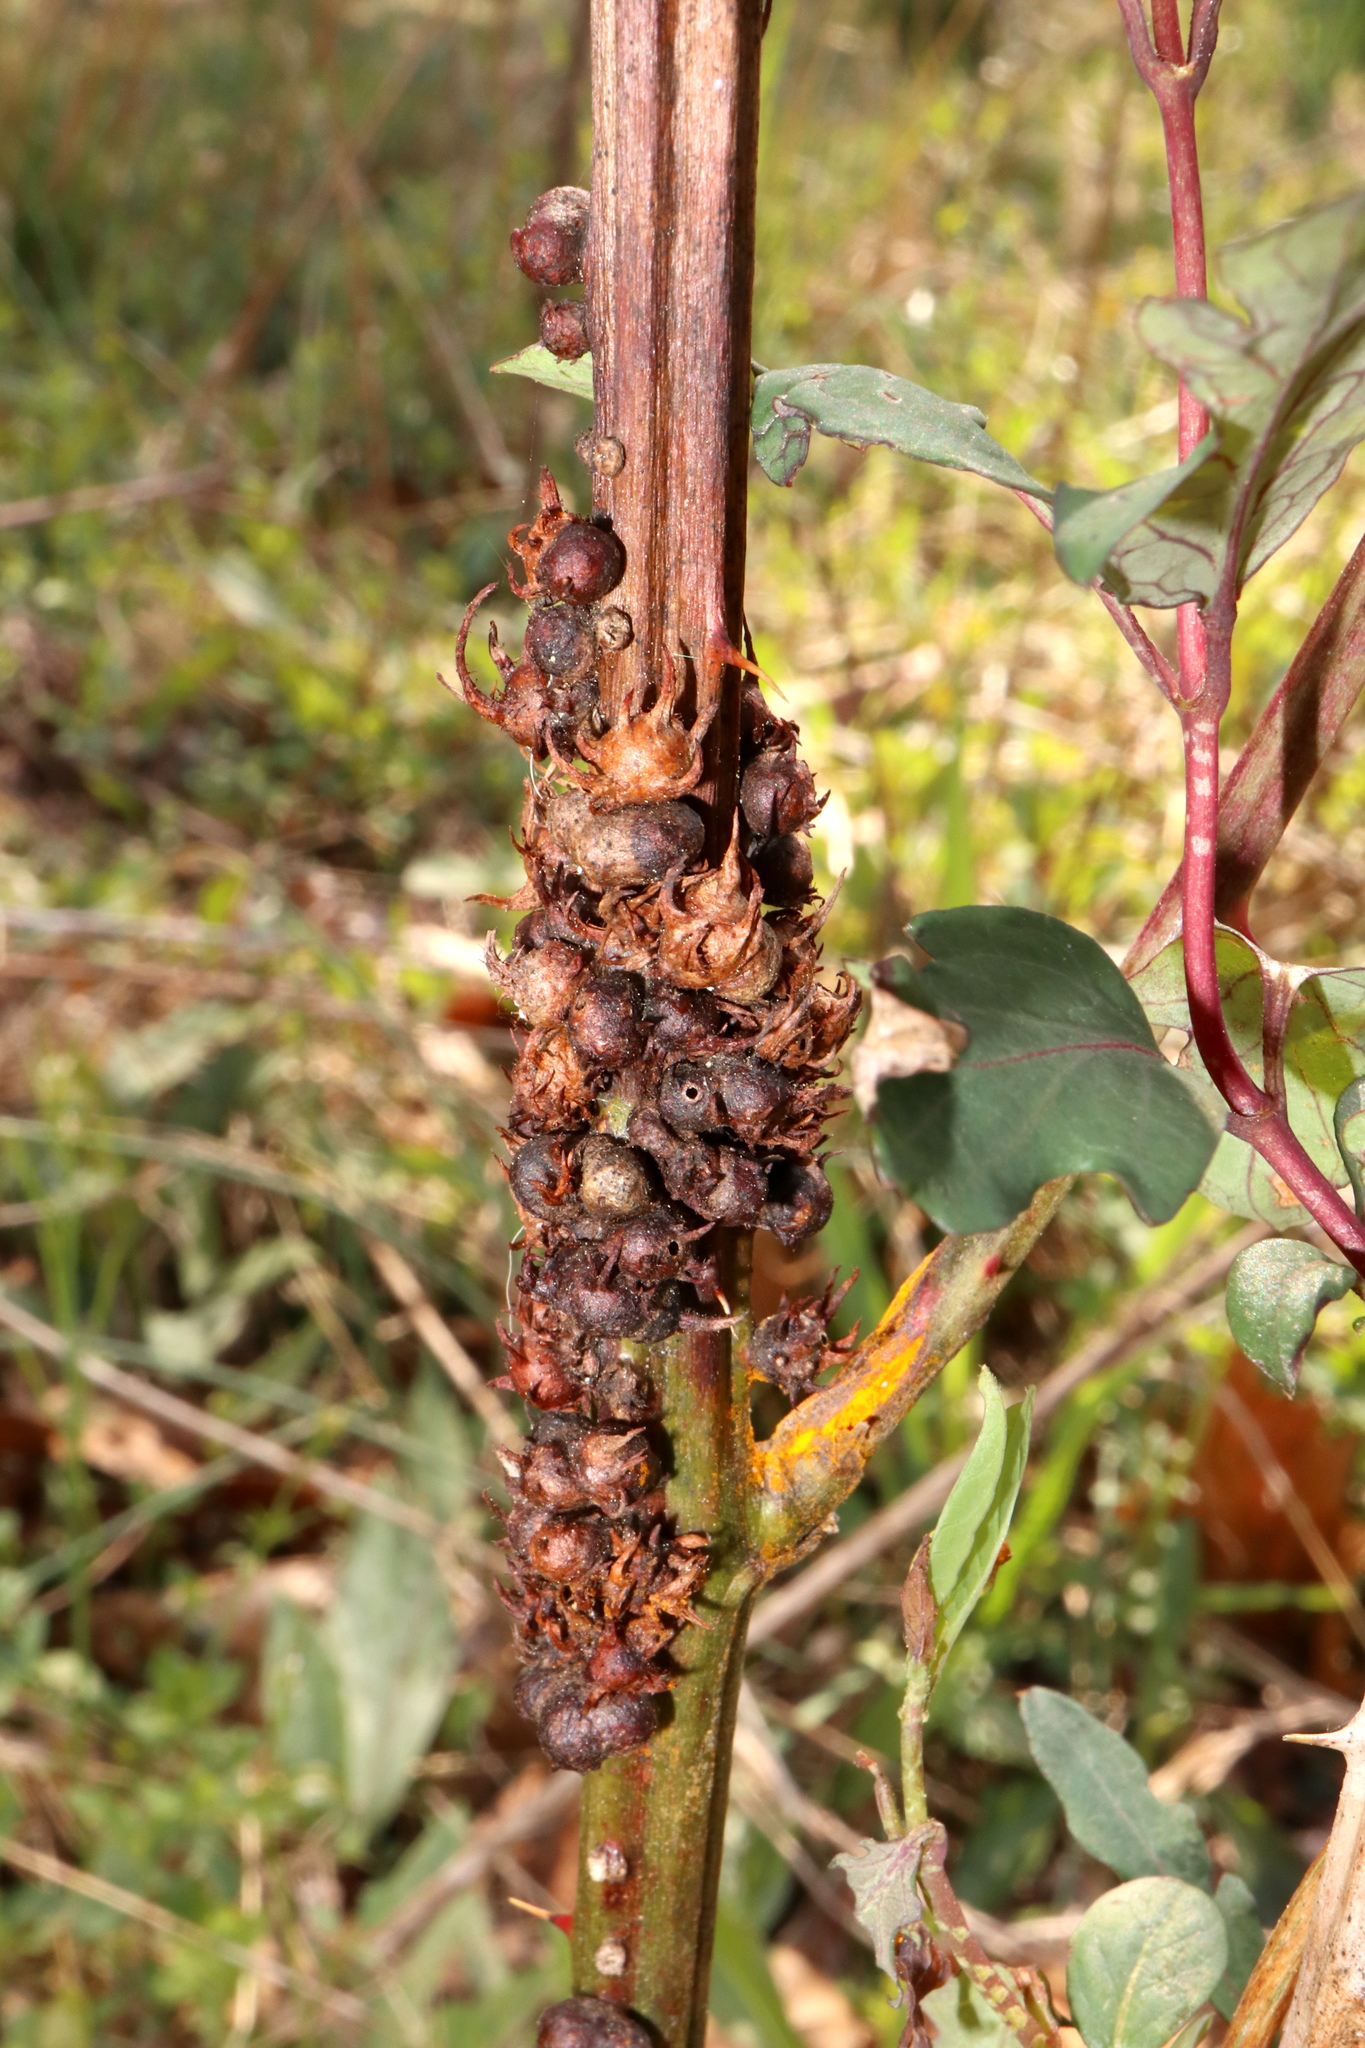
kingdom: Animalia
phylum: Arthropoda
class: Insecta
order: Hymenoptera
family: Cynipidae
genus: Diastrophus
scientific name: Diastrophus
